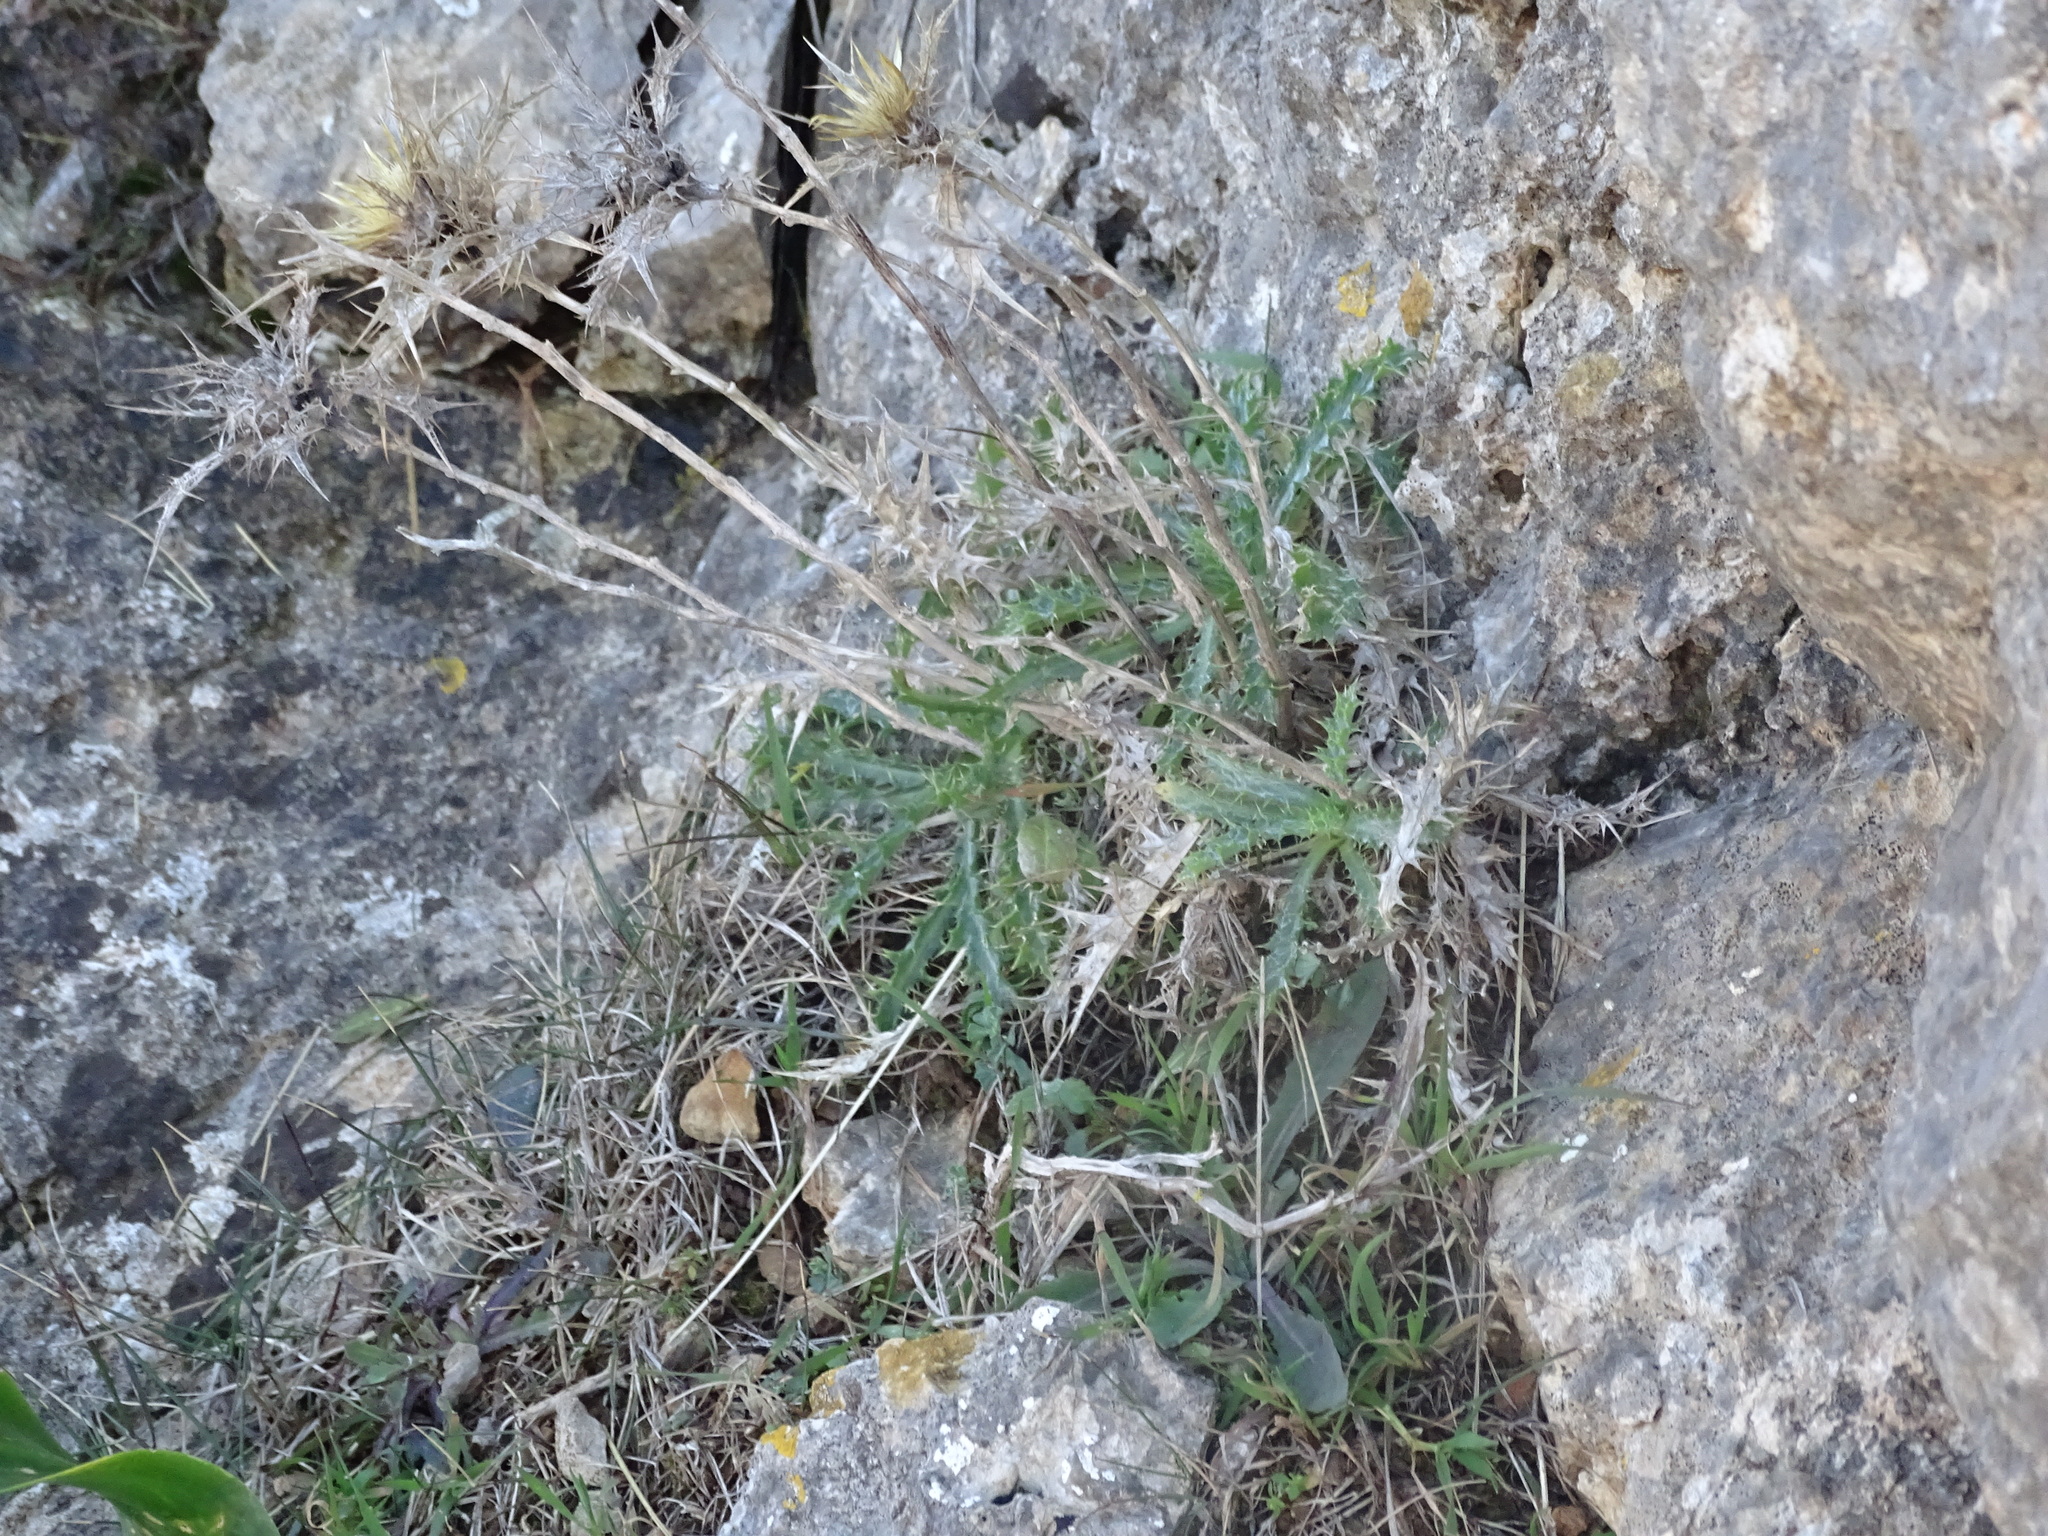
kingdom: Plantae
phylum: Tracheophyta
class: Magnoliopsida
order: Asterales
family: Asteraceae
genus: Carlina
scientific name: Carlina corymbosa
